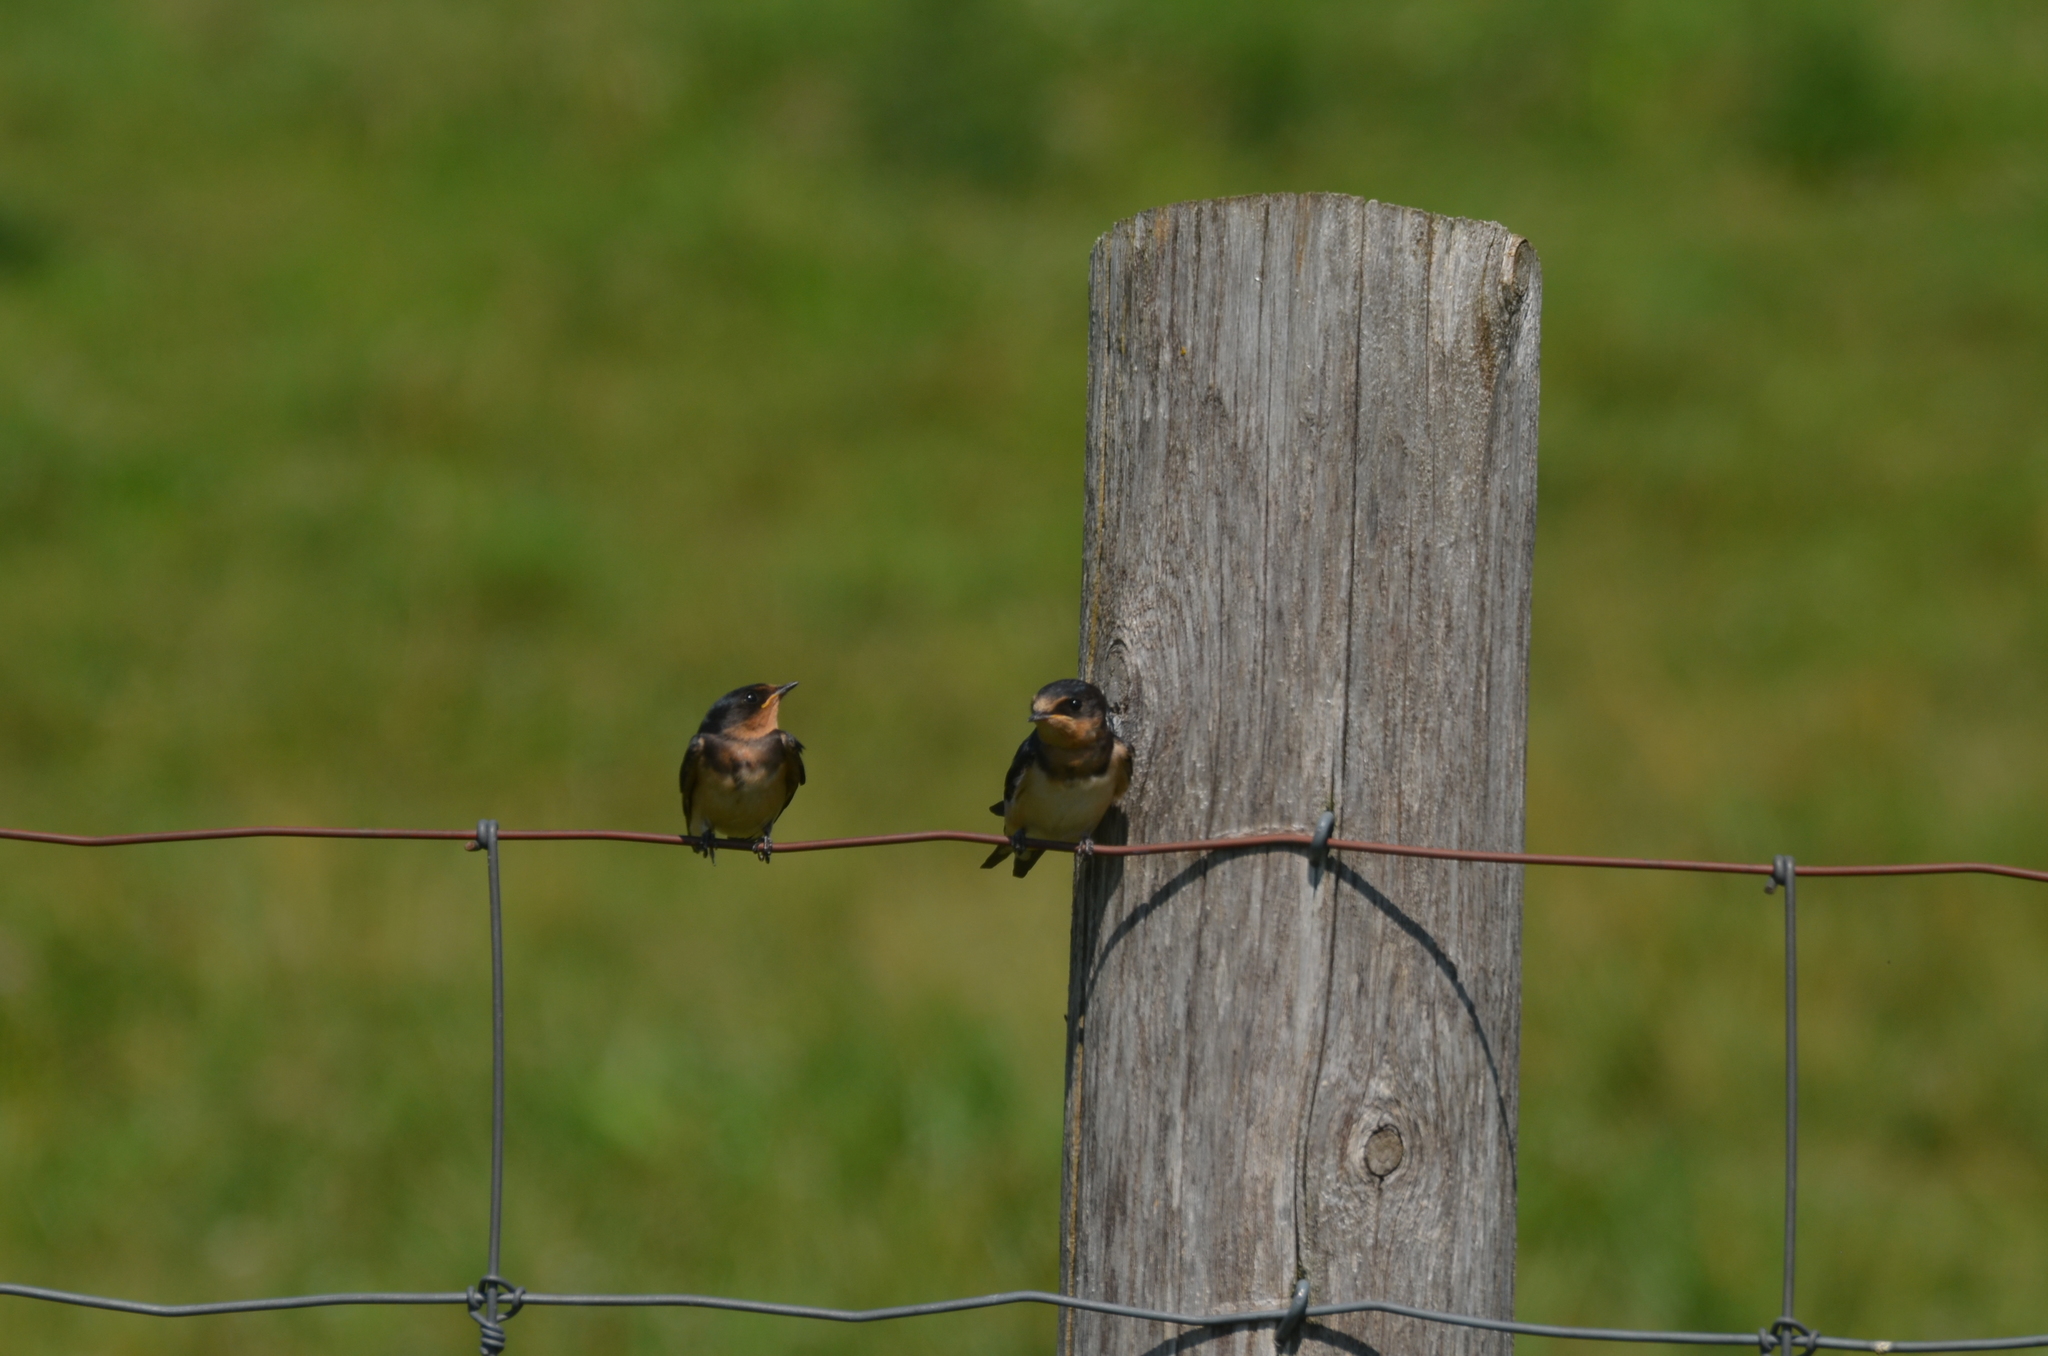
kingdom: Animalia
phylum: Chordata
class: Aves
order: Passeriformes
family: Hirundinidae
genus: Hirundo
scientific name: Hirundo rustica
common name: Barn swallow
